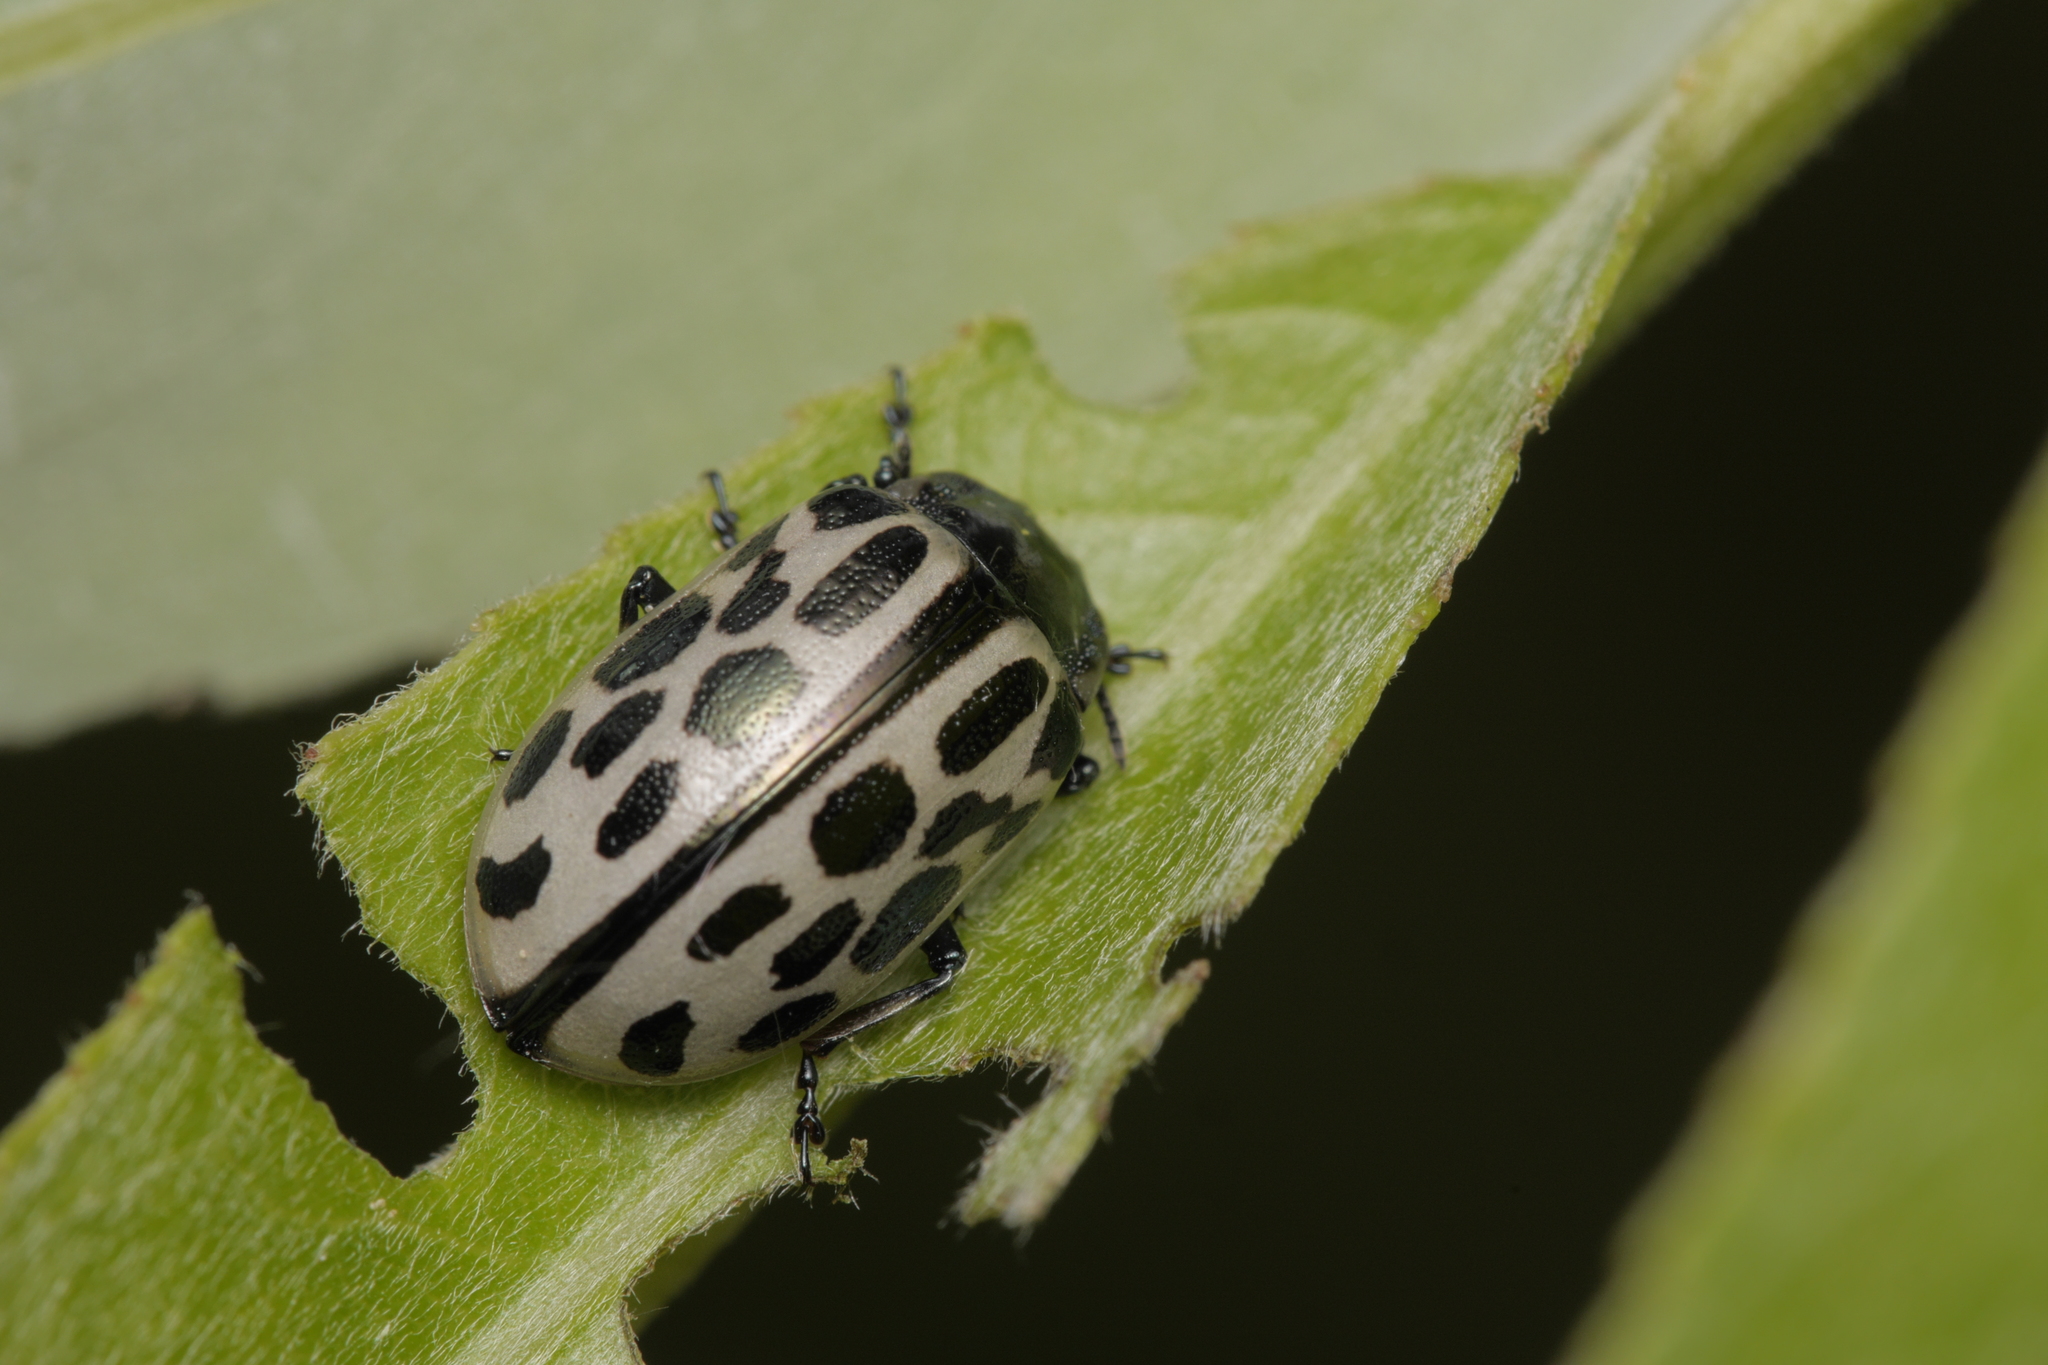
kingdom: Animalia
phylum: Arthropoda
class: Insecta
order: Coleoptera
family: Chrysomelidae
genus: Chrysomela
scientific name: Chrysomela vigintipunctata
